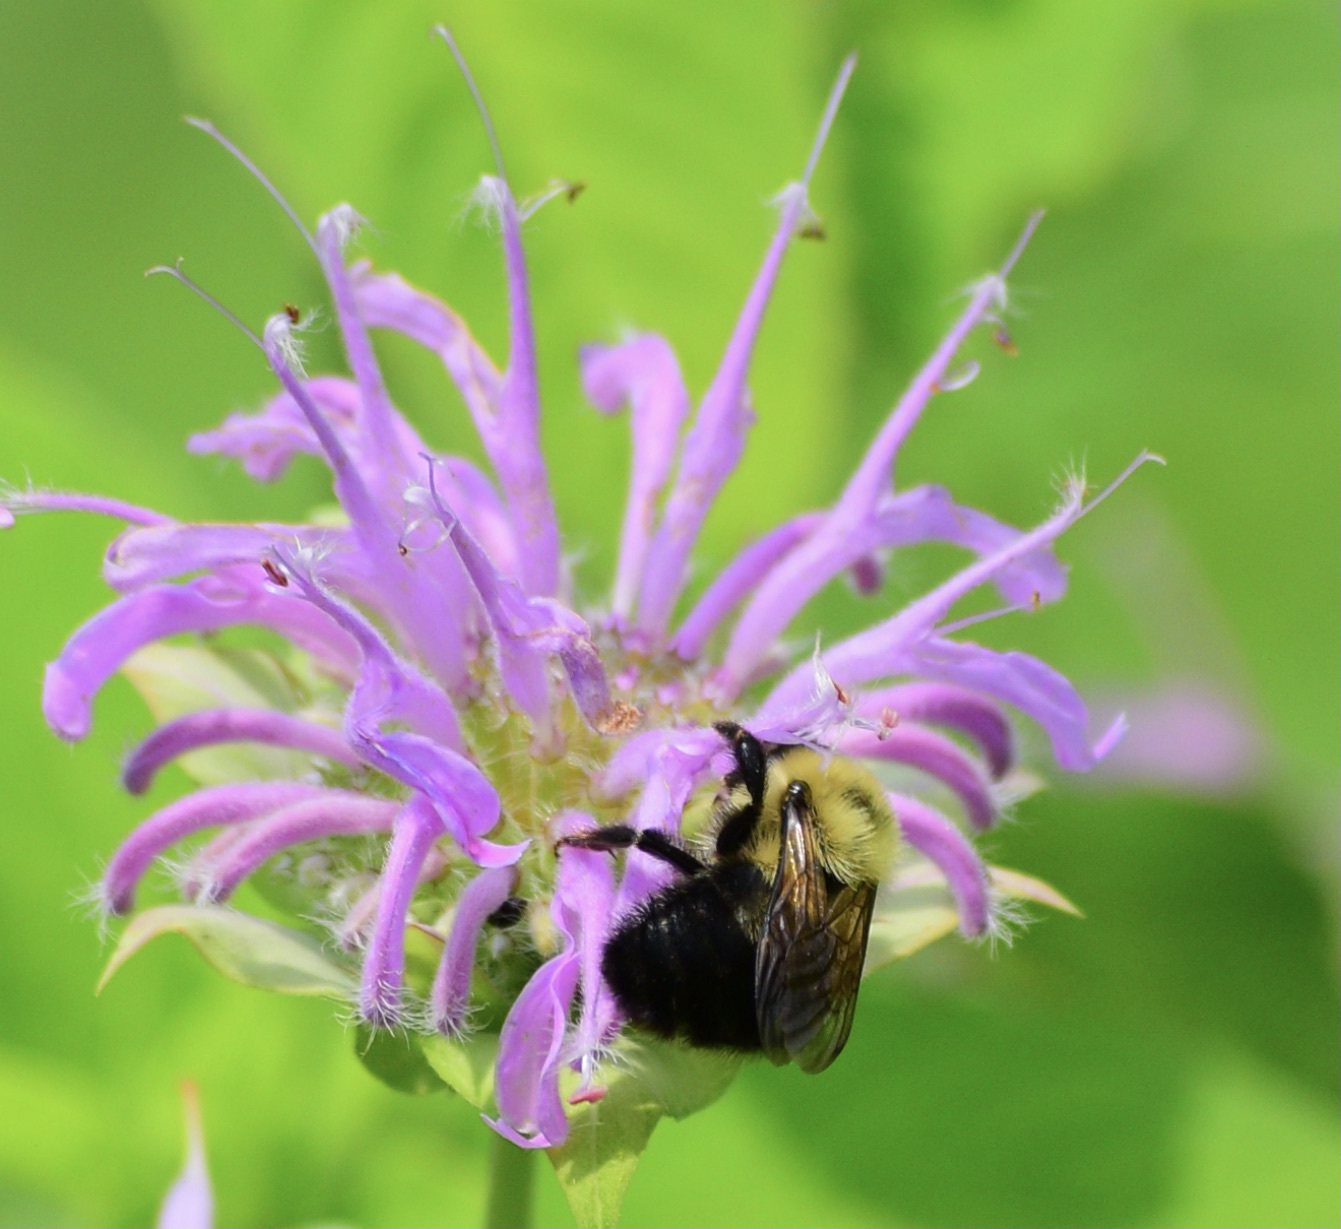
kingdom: Animalia
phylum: Arthropoda
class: Insecta
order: Hymenoptera
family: Apidae
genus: Bombus
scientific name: Bombus bimaculatus
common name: Two-spotted bumble bee
